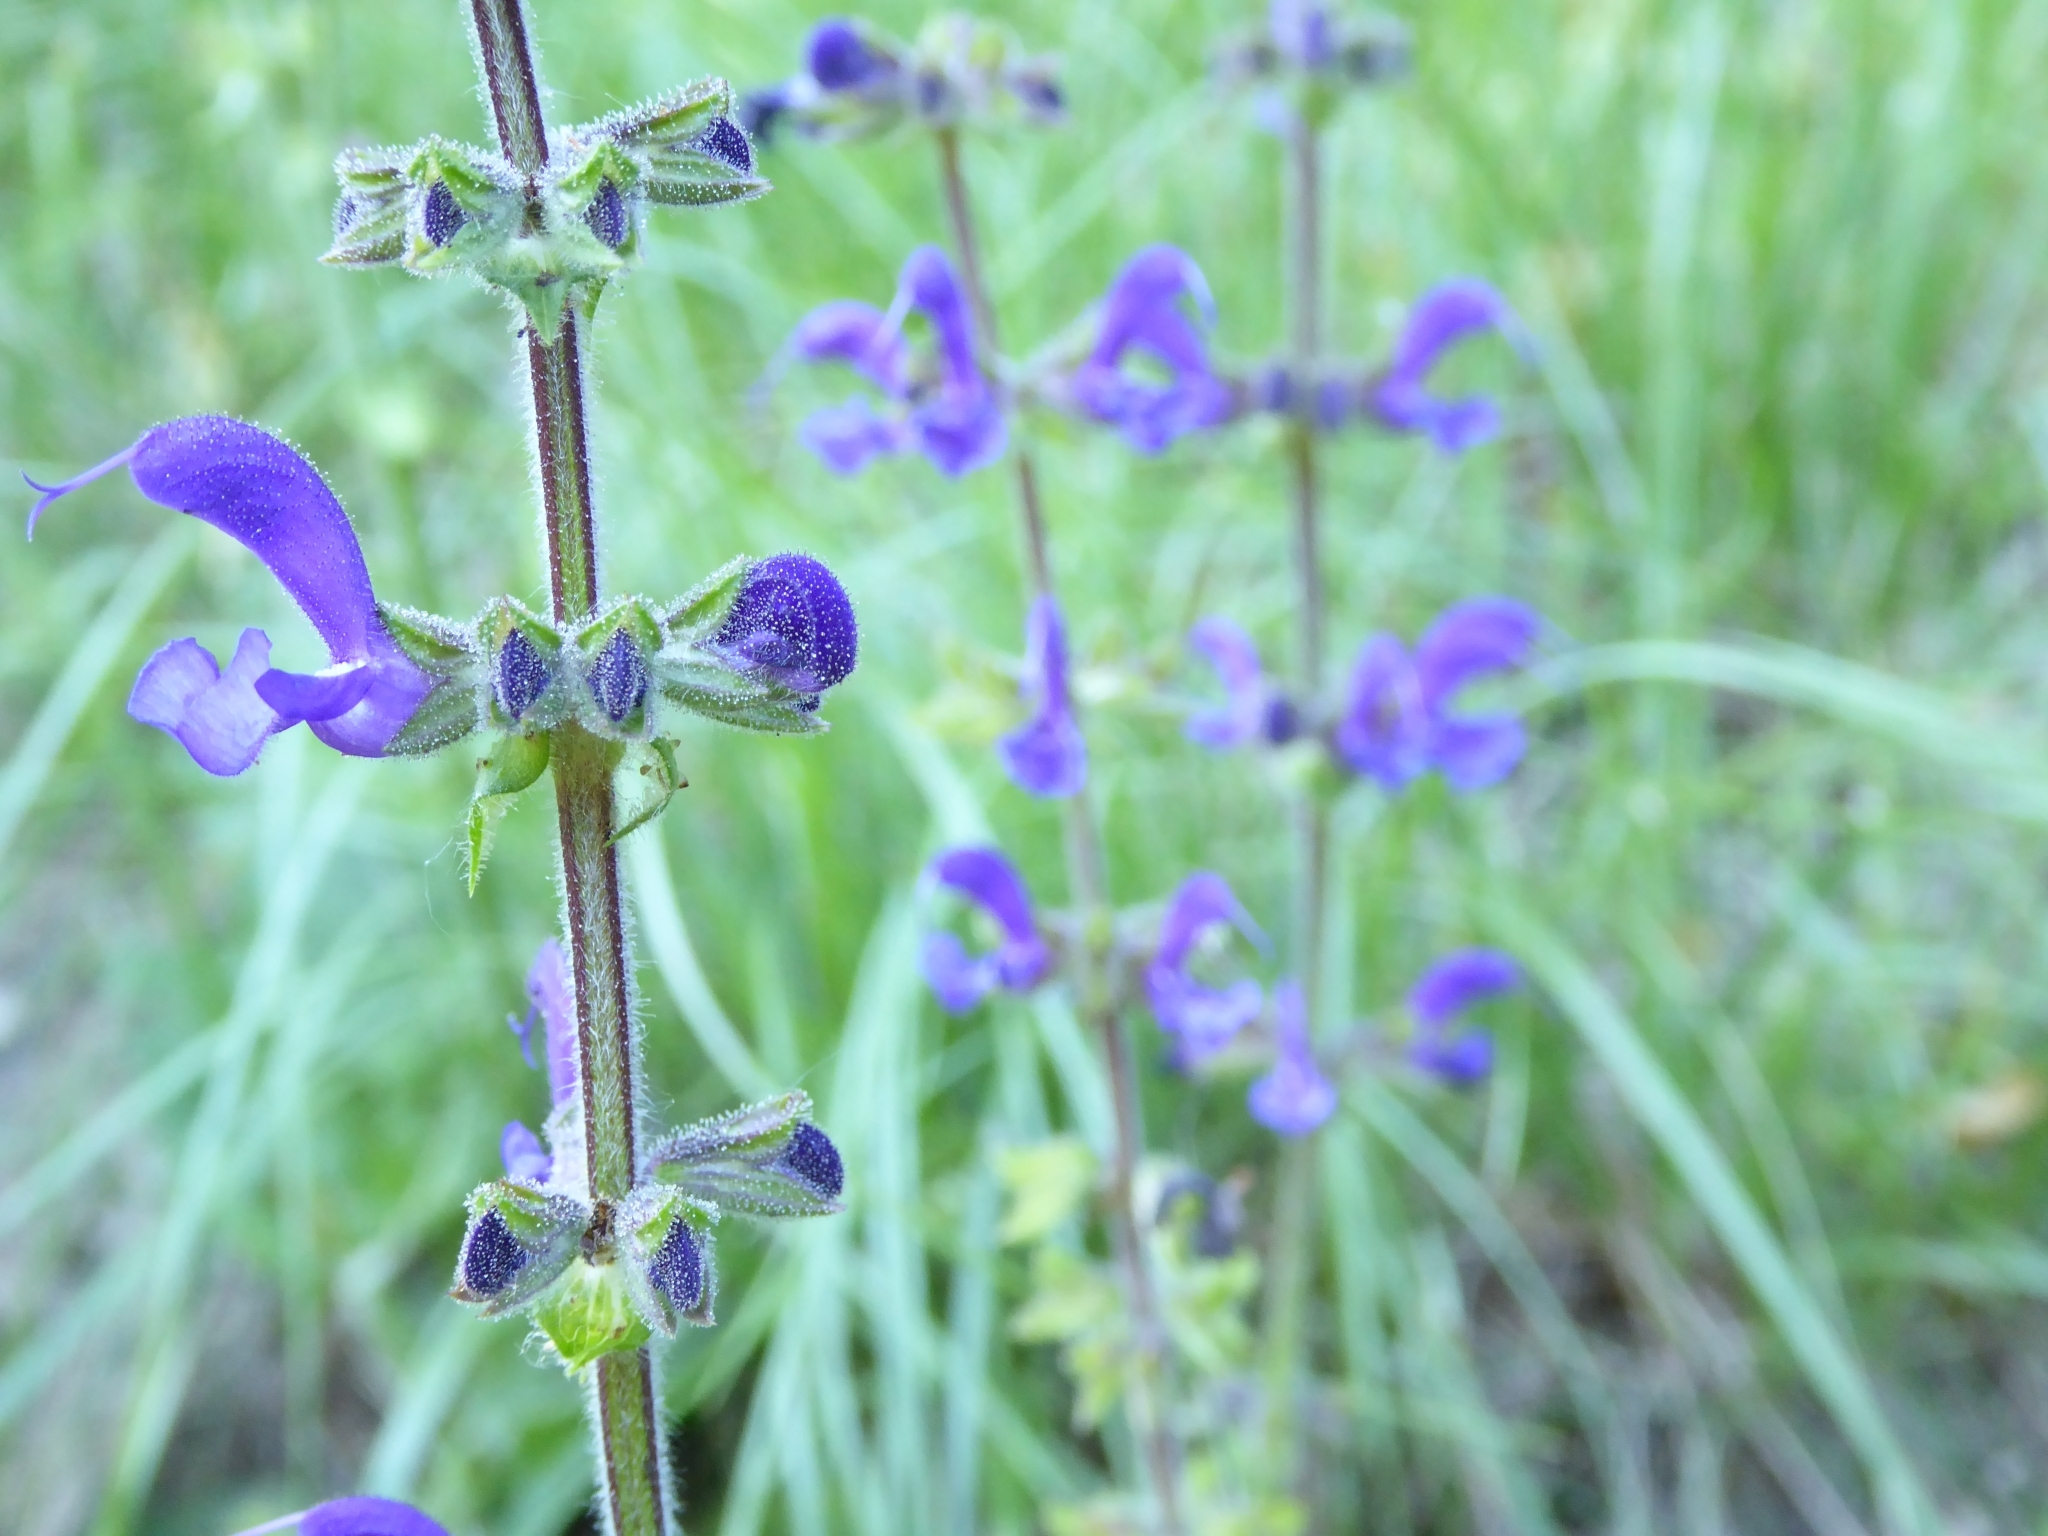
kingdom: Plantae
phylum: Tracheophyta
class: Magnoliopsida
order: Lamiales
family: Lamiaceae
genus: Salvia
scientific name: Salvia pratensis
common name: Meadow sage
